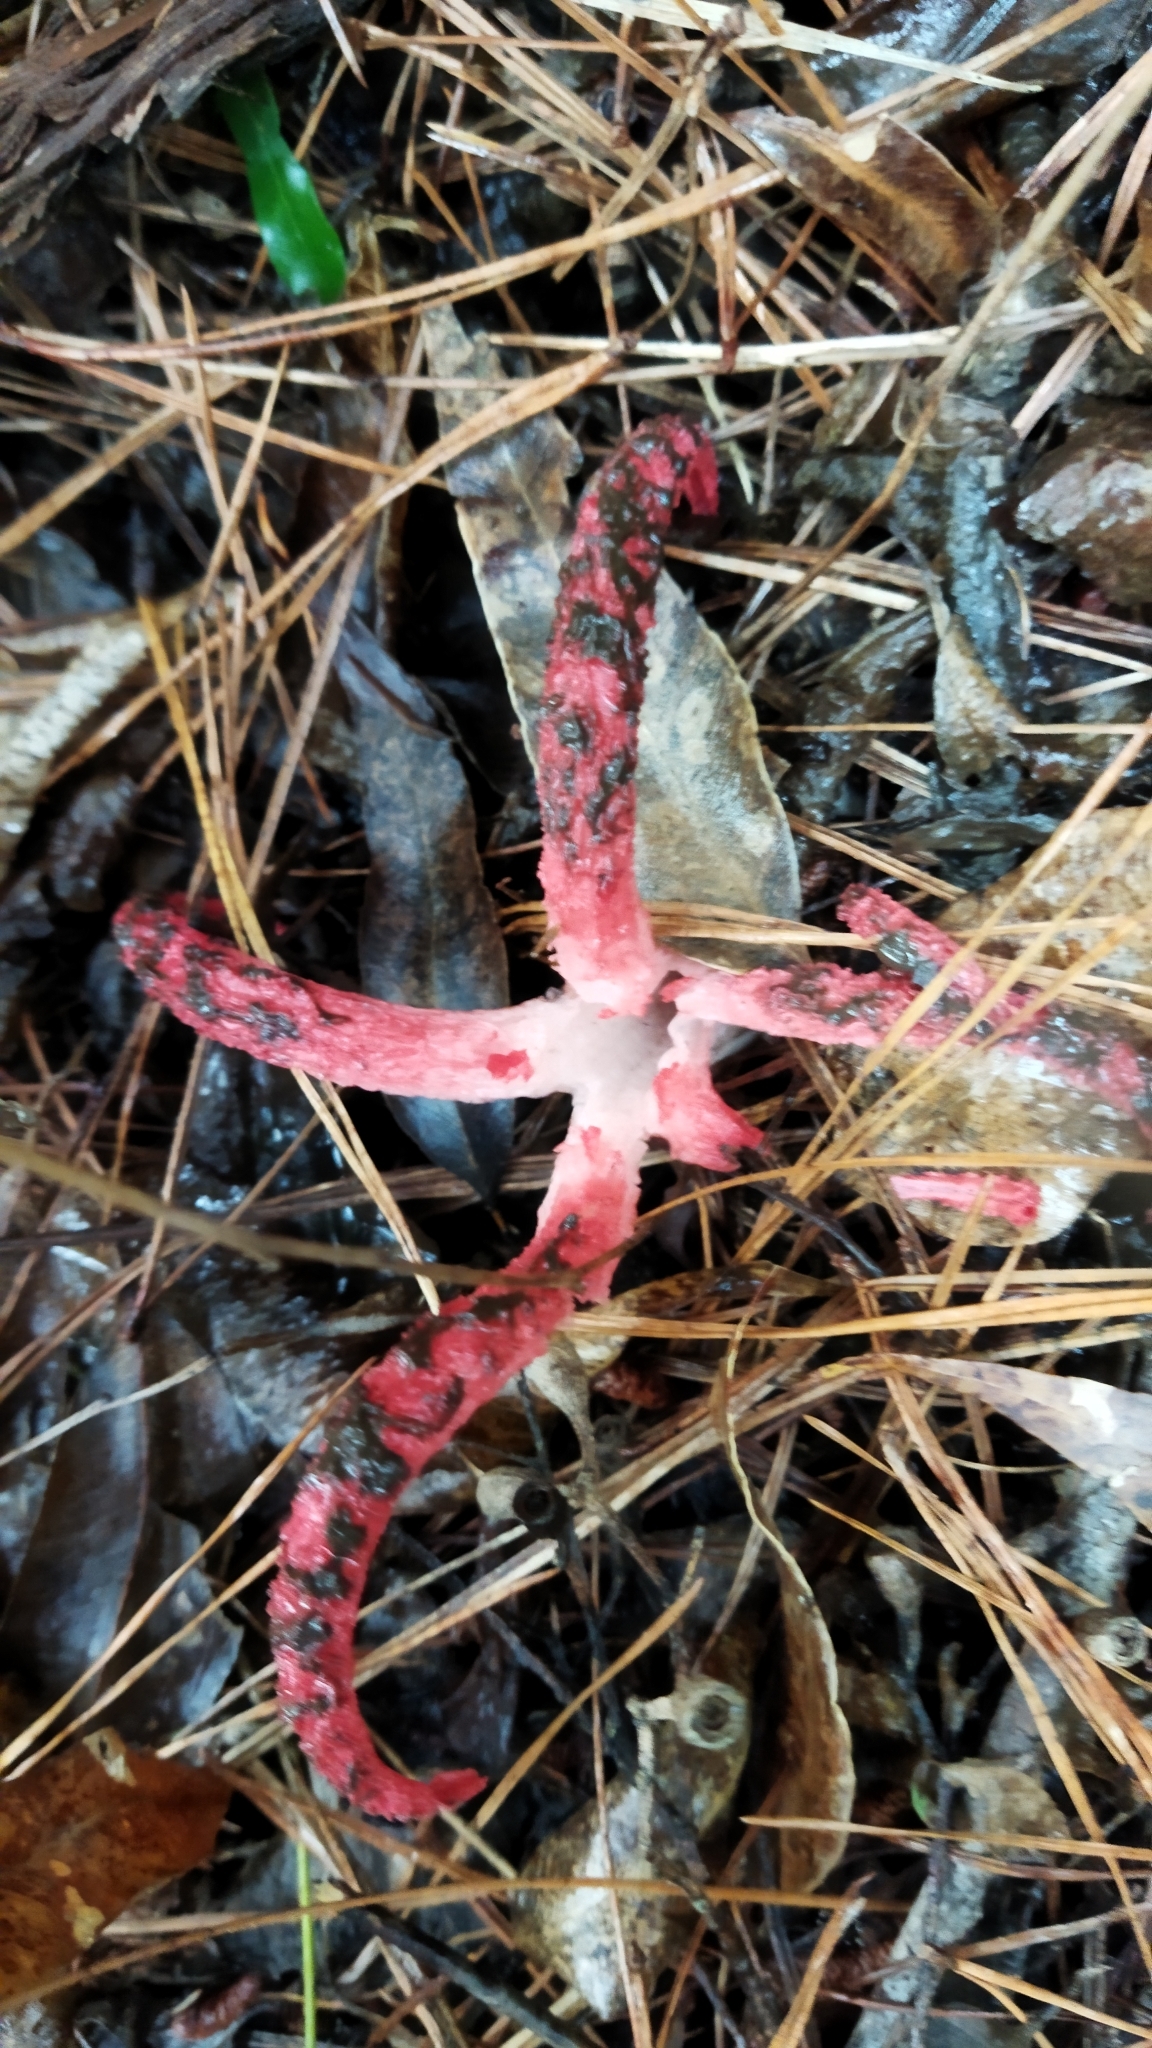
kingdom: Fungi
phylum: Basidiomycota
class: Agaricomycetes
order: Phallales
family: Phallaceae
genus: Clathrus
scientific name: Clathrus archeri
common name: Devil's fingers
